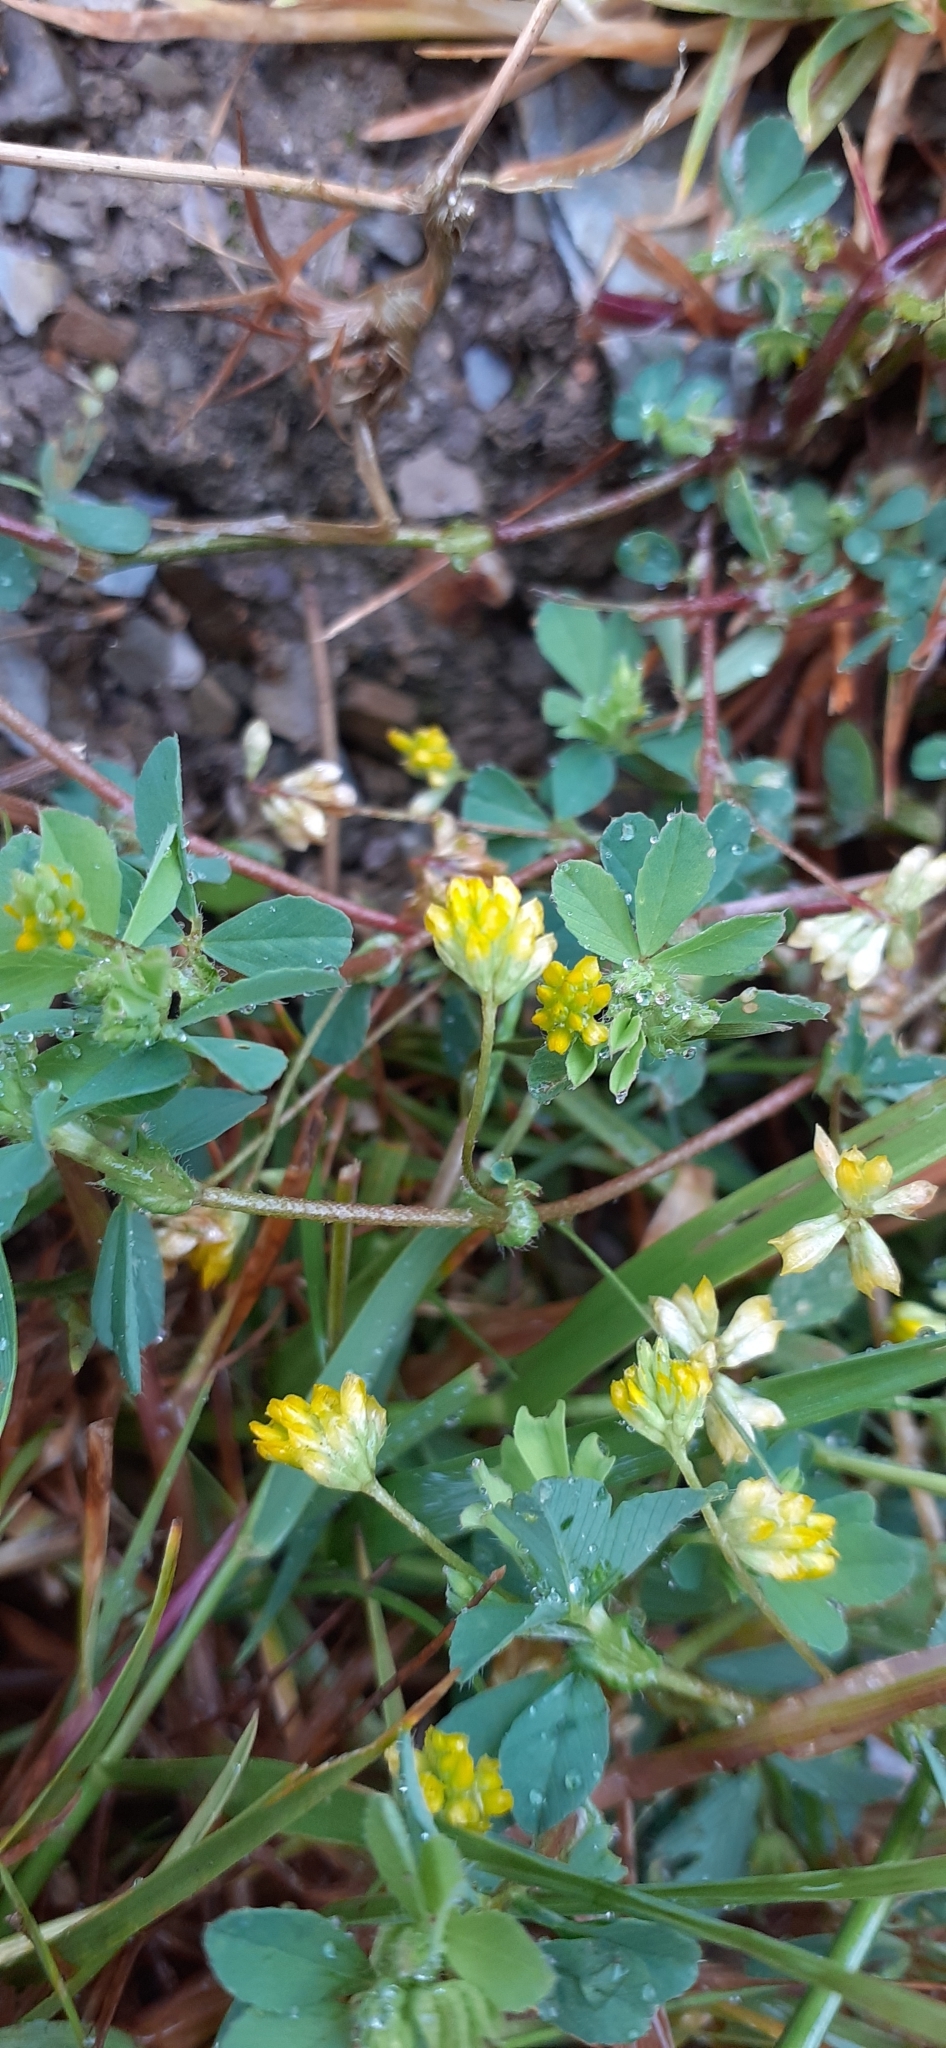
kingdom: Plantae
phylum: Tracheophyta
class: Magnoliopsida
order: Fabales
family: Fabaceae
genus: Trifolium
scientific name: Trifolium dubium
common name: Suckling clover
